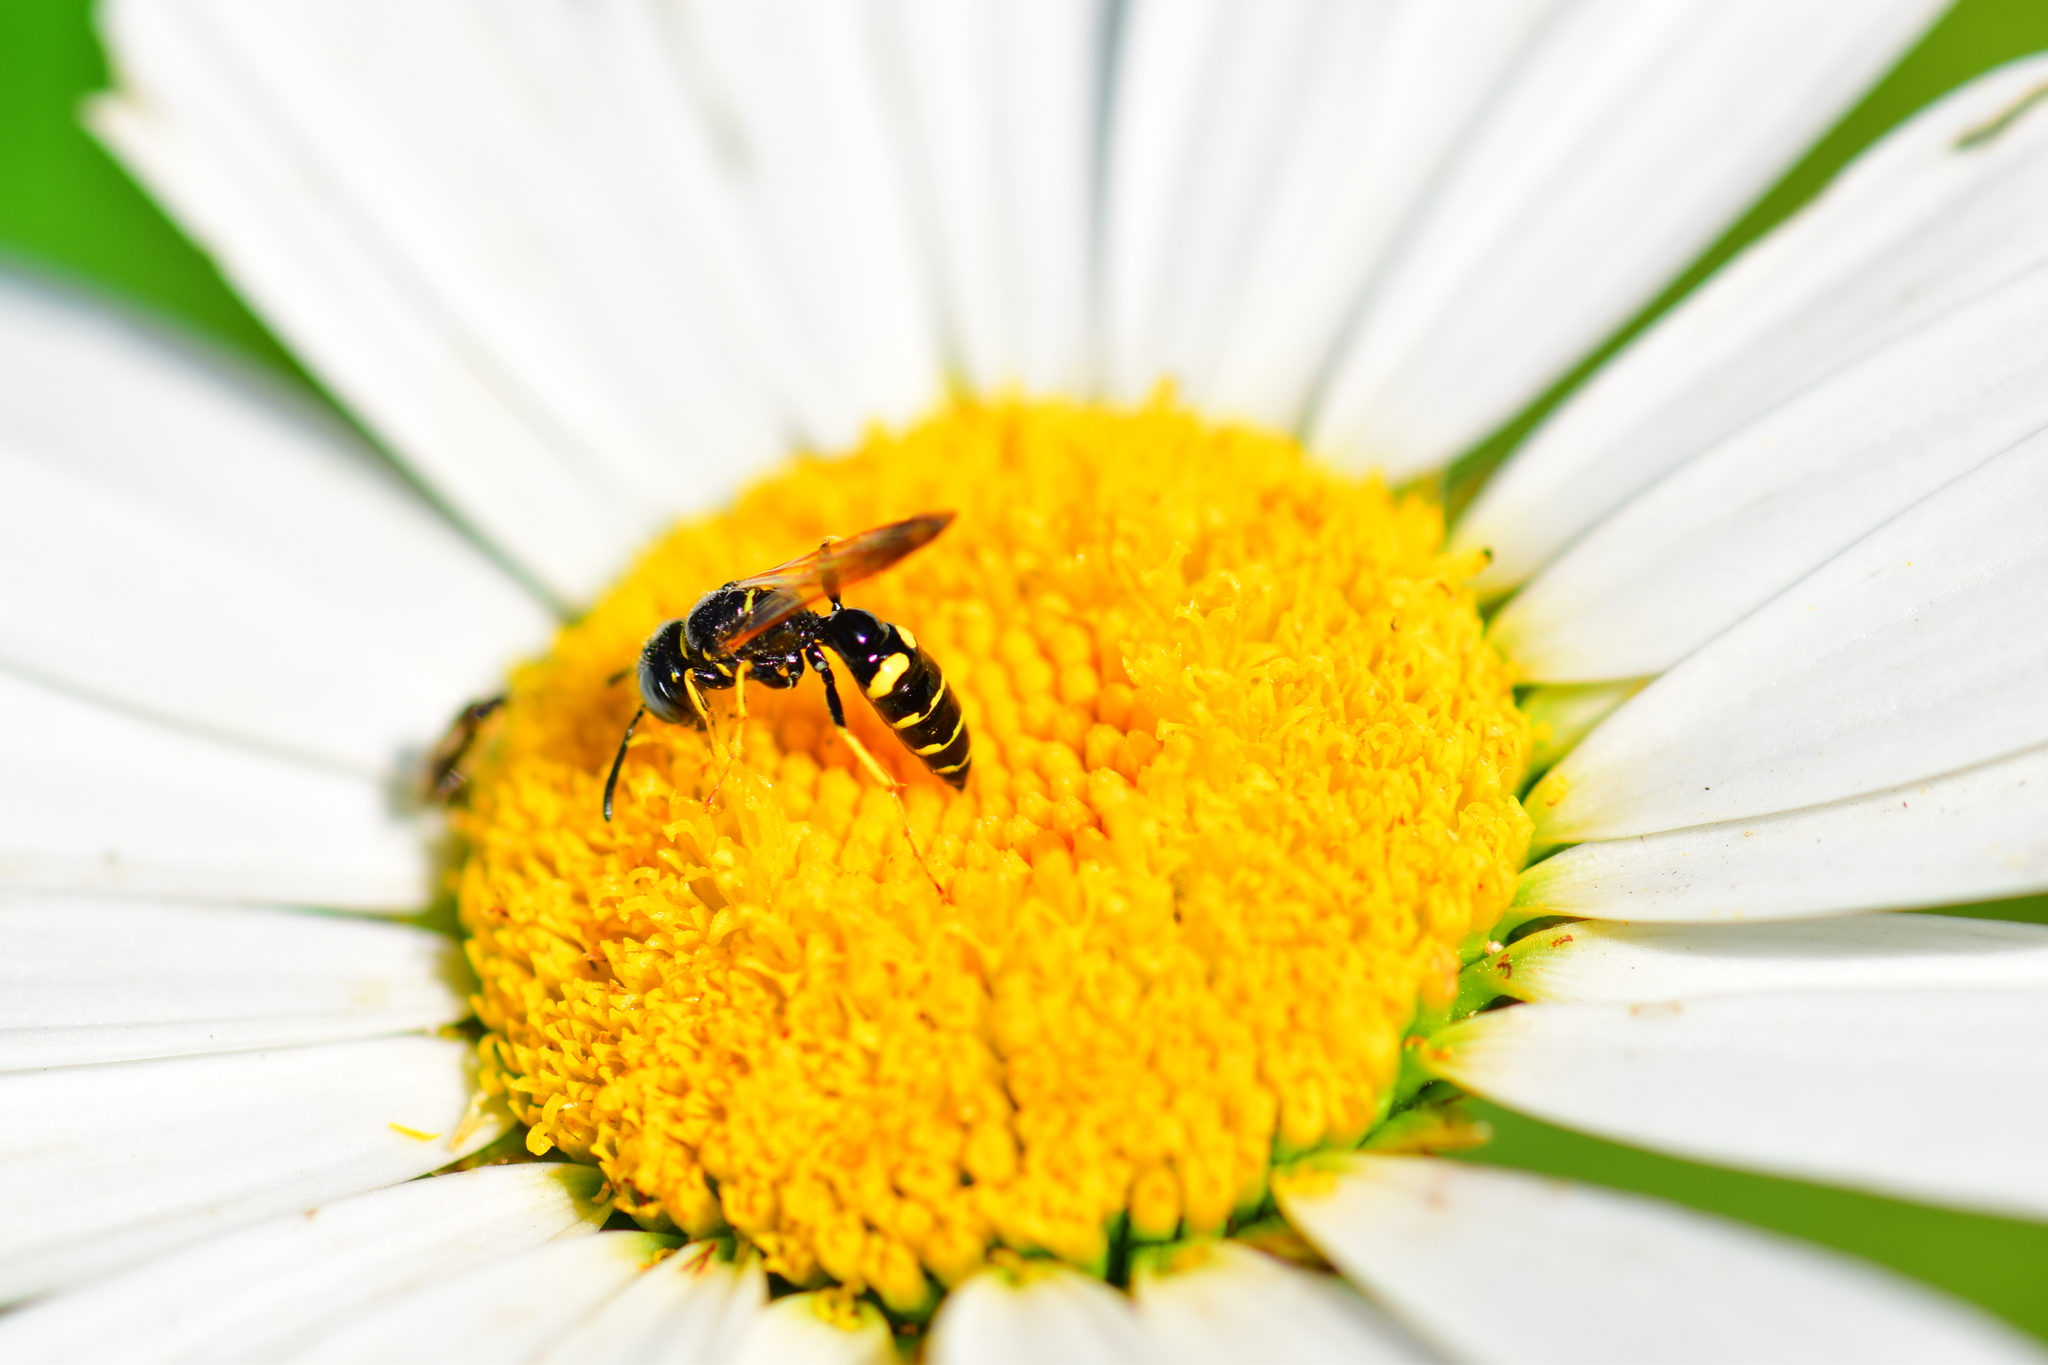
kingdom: Animalia
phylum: Arthropoda
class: Insecta
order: Hymenoptera
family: Crabronidae
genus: Philanthus
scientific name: Philanthus bilunatus
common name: Two moons beewolf
